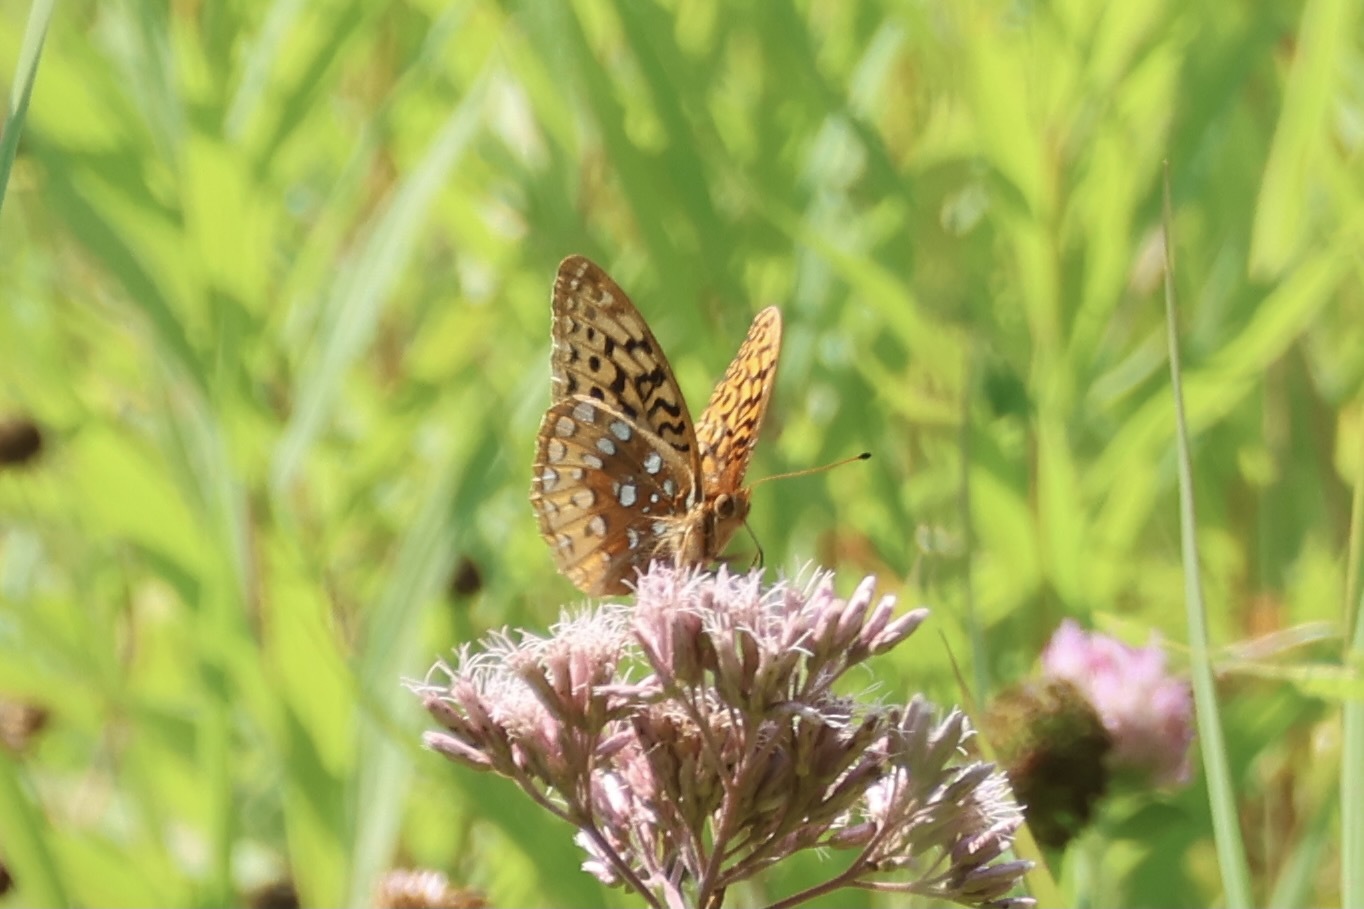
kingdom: Animalia
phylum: Arthropoda
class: Insecta
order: Lepidoptera
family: Nymphalidae
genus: Speyeria
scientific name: Speyeria cybele
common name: Great spangled fritillary
